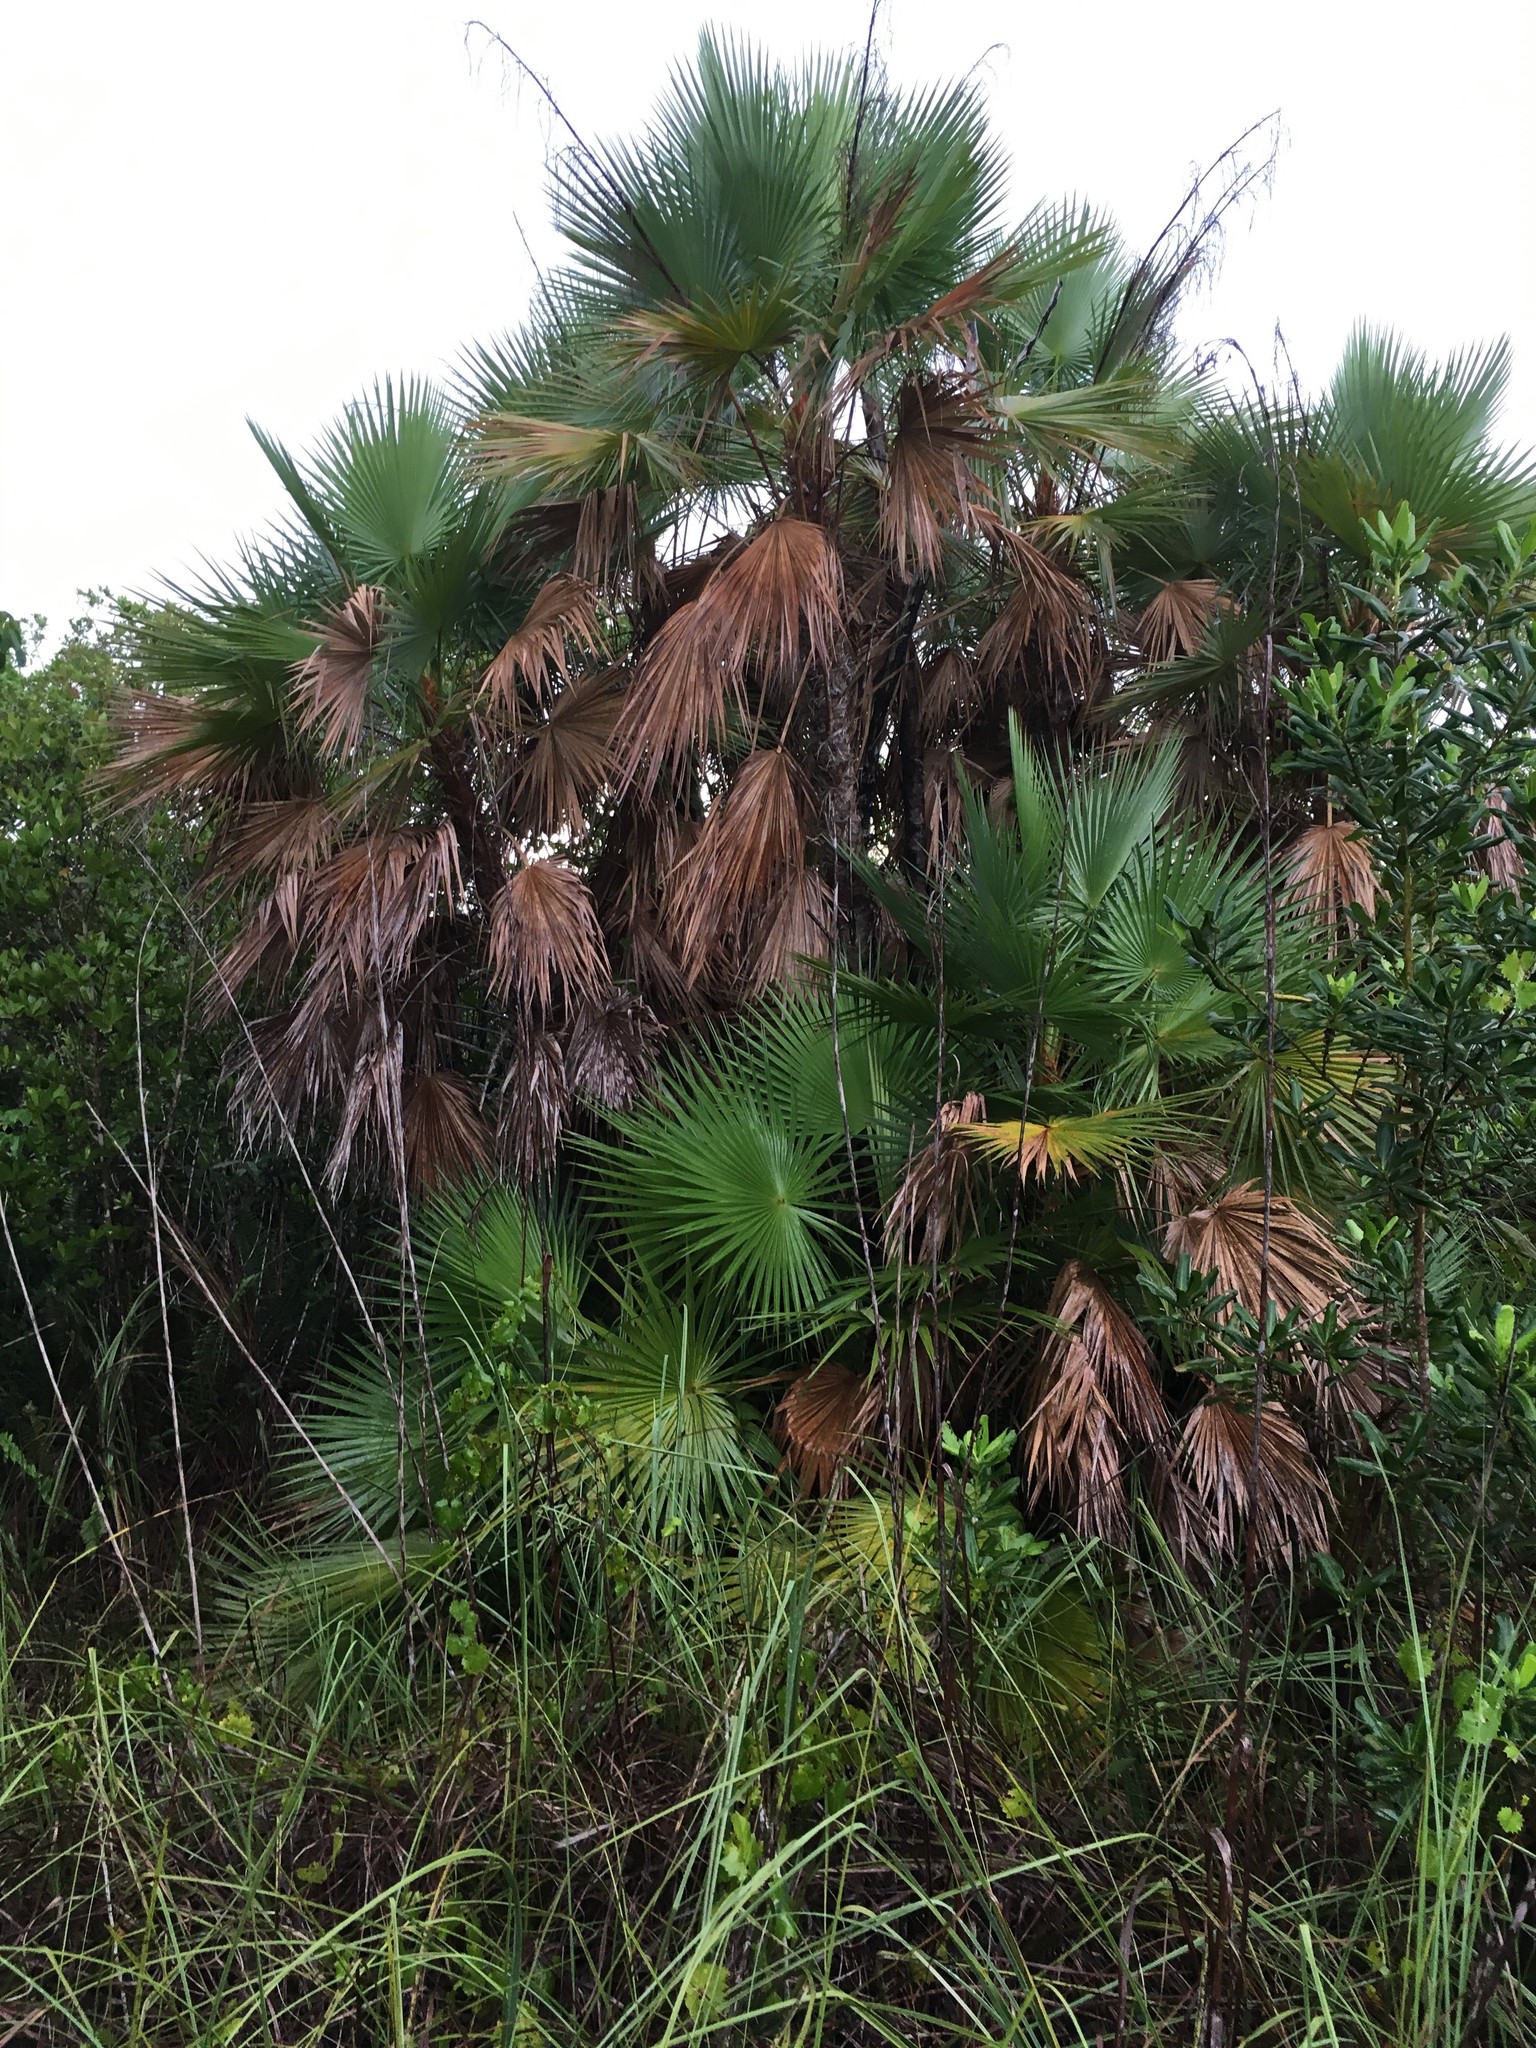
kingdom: Plantae
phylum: Tracheophyta
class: Liliopsida
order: Arecales
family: Arecaceae
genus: Acoelorraphe
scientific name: Acoelorraphe wrightii
